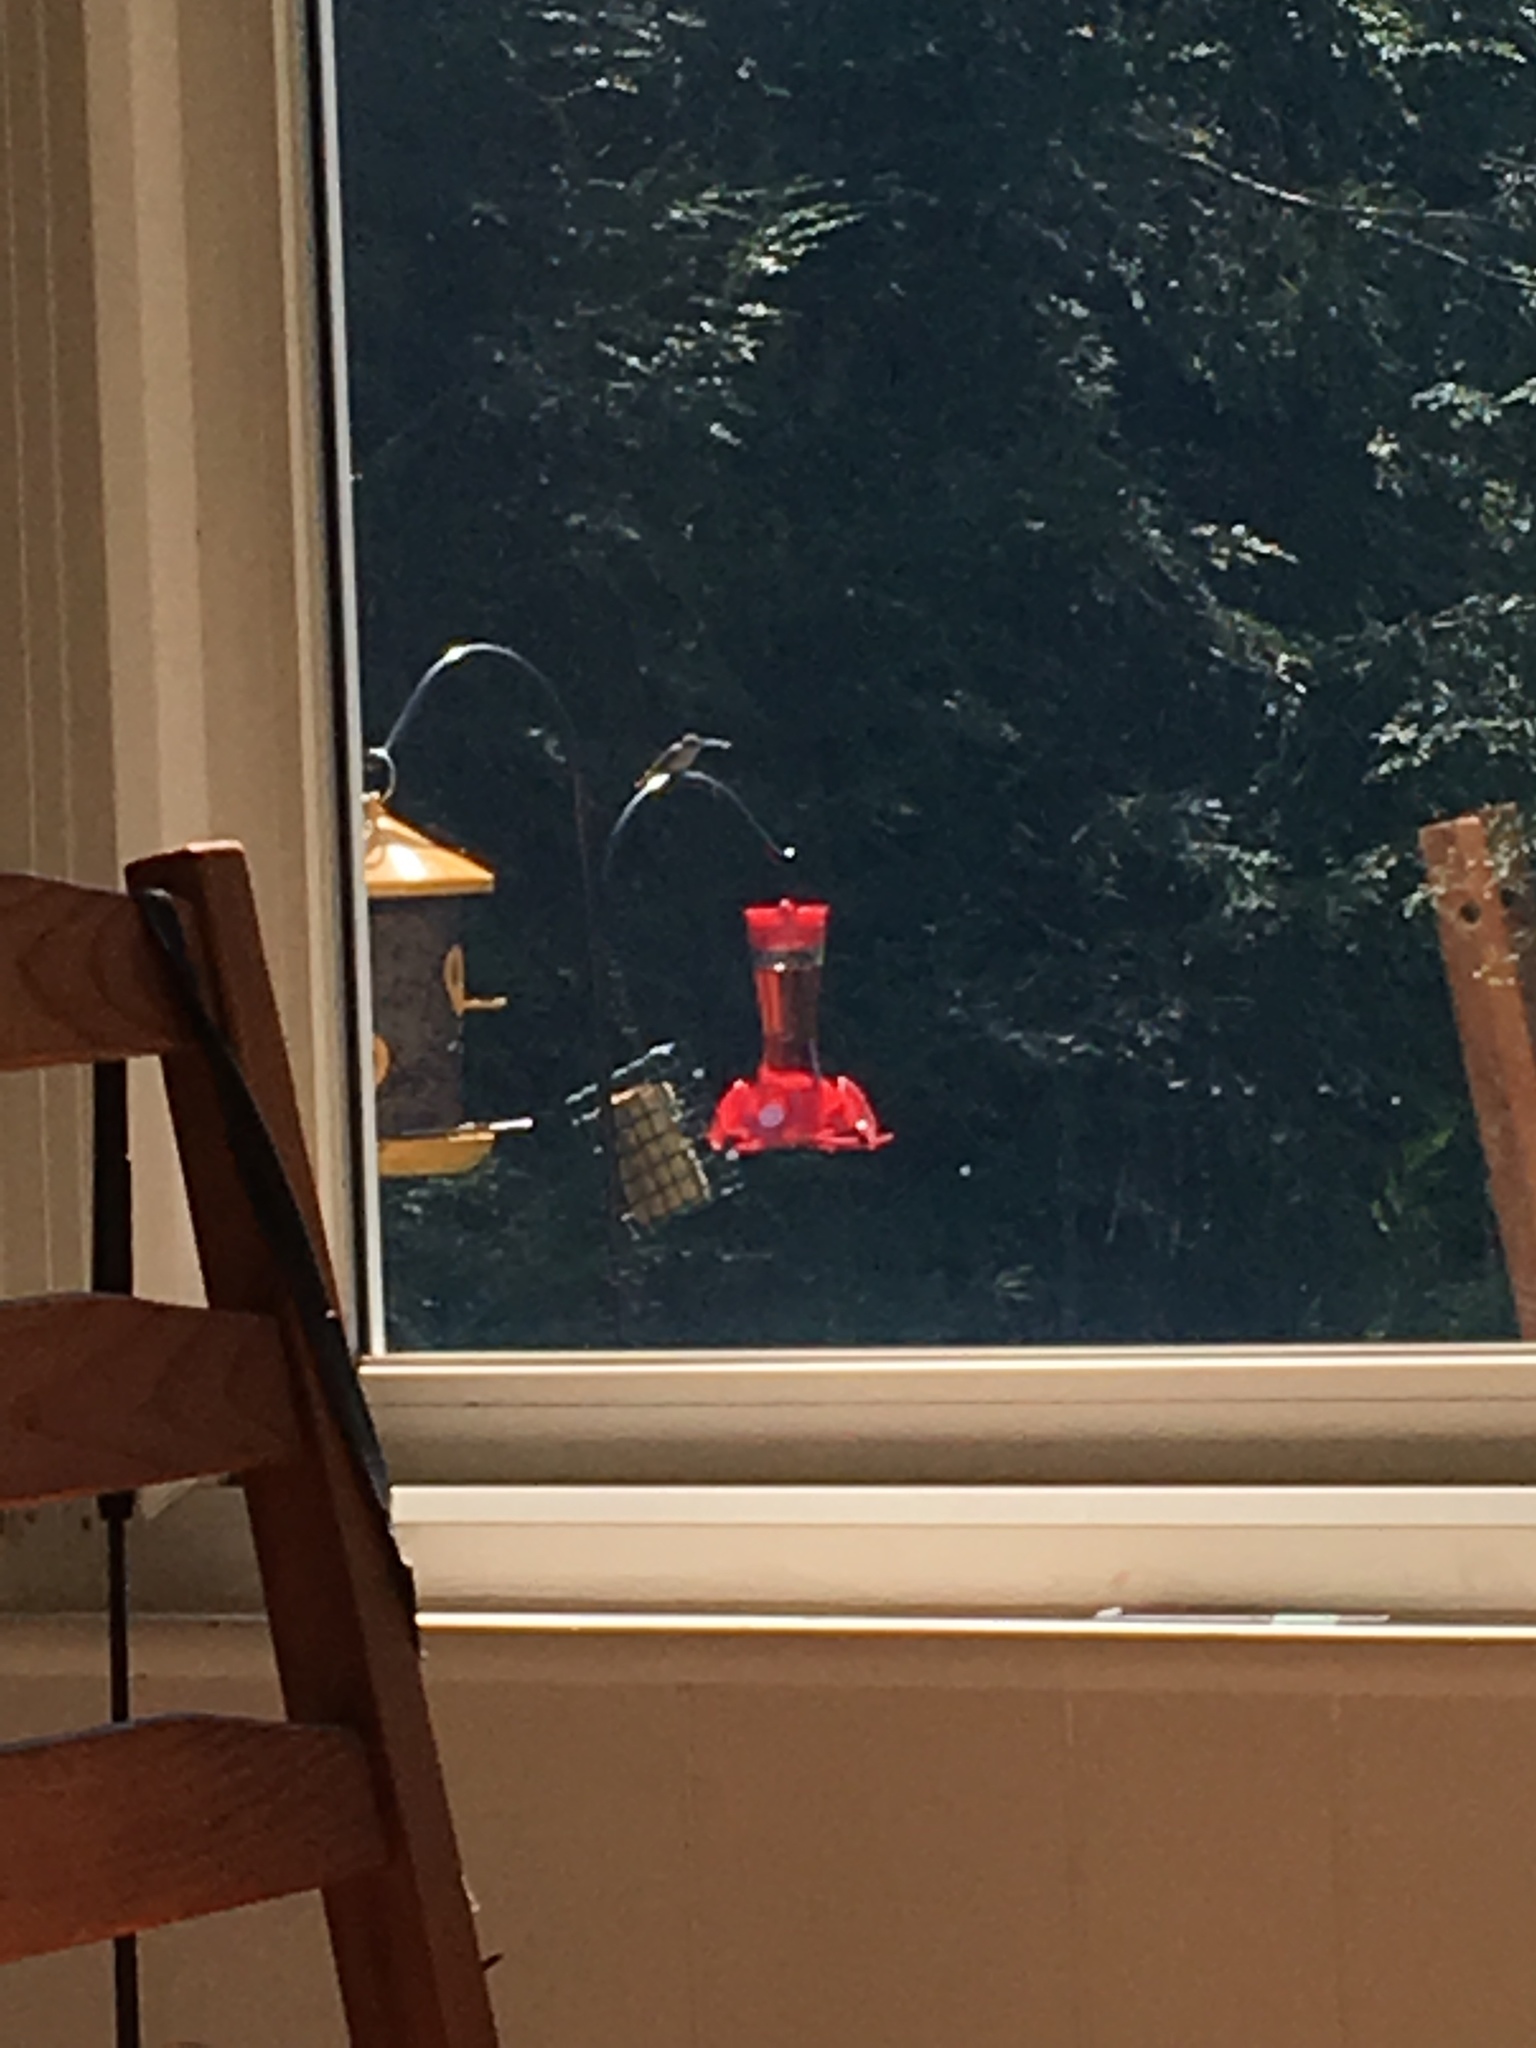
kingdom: Animalia
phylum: Chordata
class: Aves
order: Apodiformes
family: Trochilidae
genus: Archilochus
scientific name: Archilochus colubris
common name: Ruby-throated hummingbird
